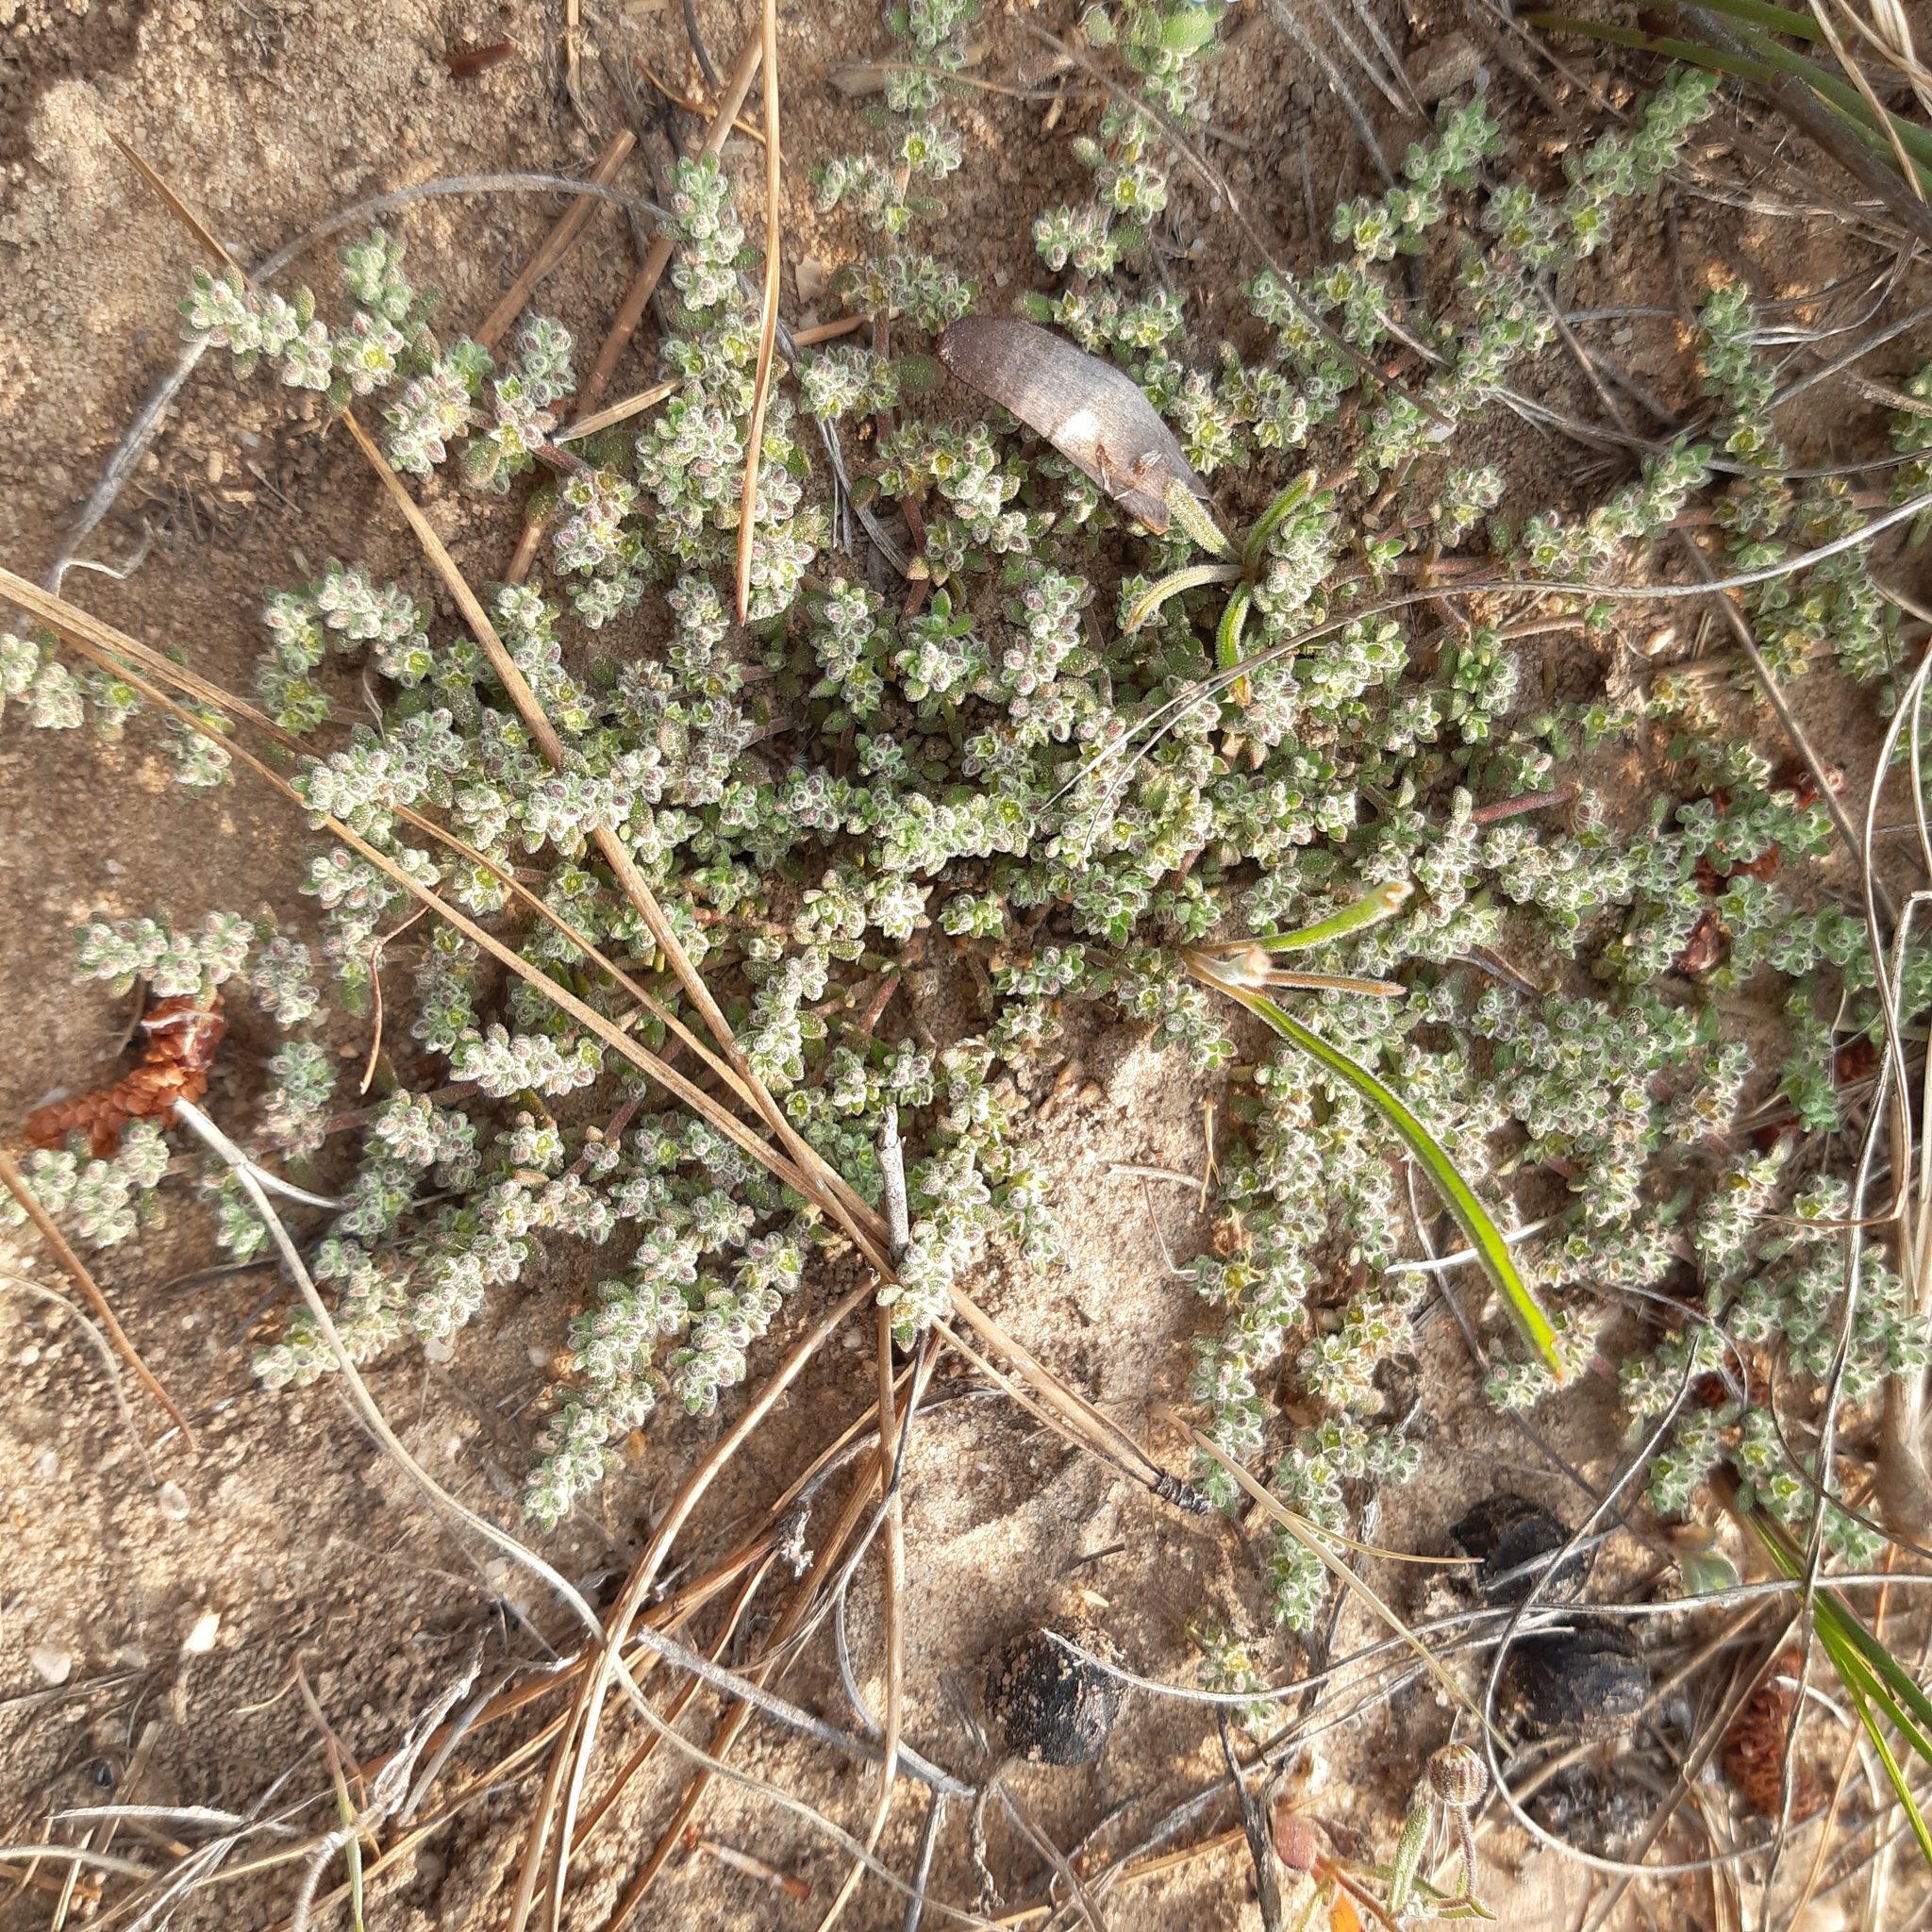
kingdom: Plantae
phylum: Tracheophyta
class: Magnoliopsida
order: Caryophyllales
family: Caryophyllaceae
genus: Herniaria
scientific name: Herniaria pearsonii
